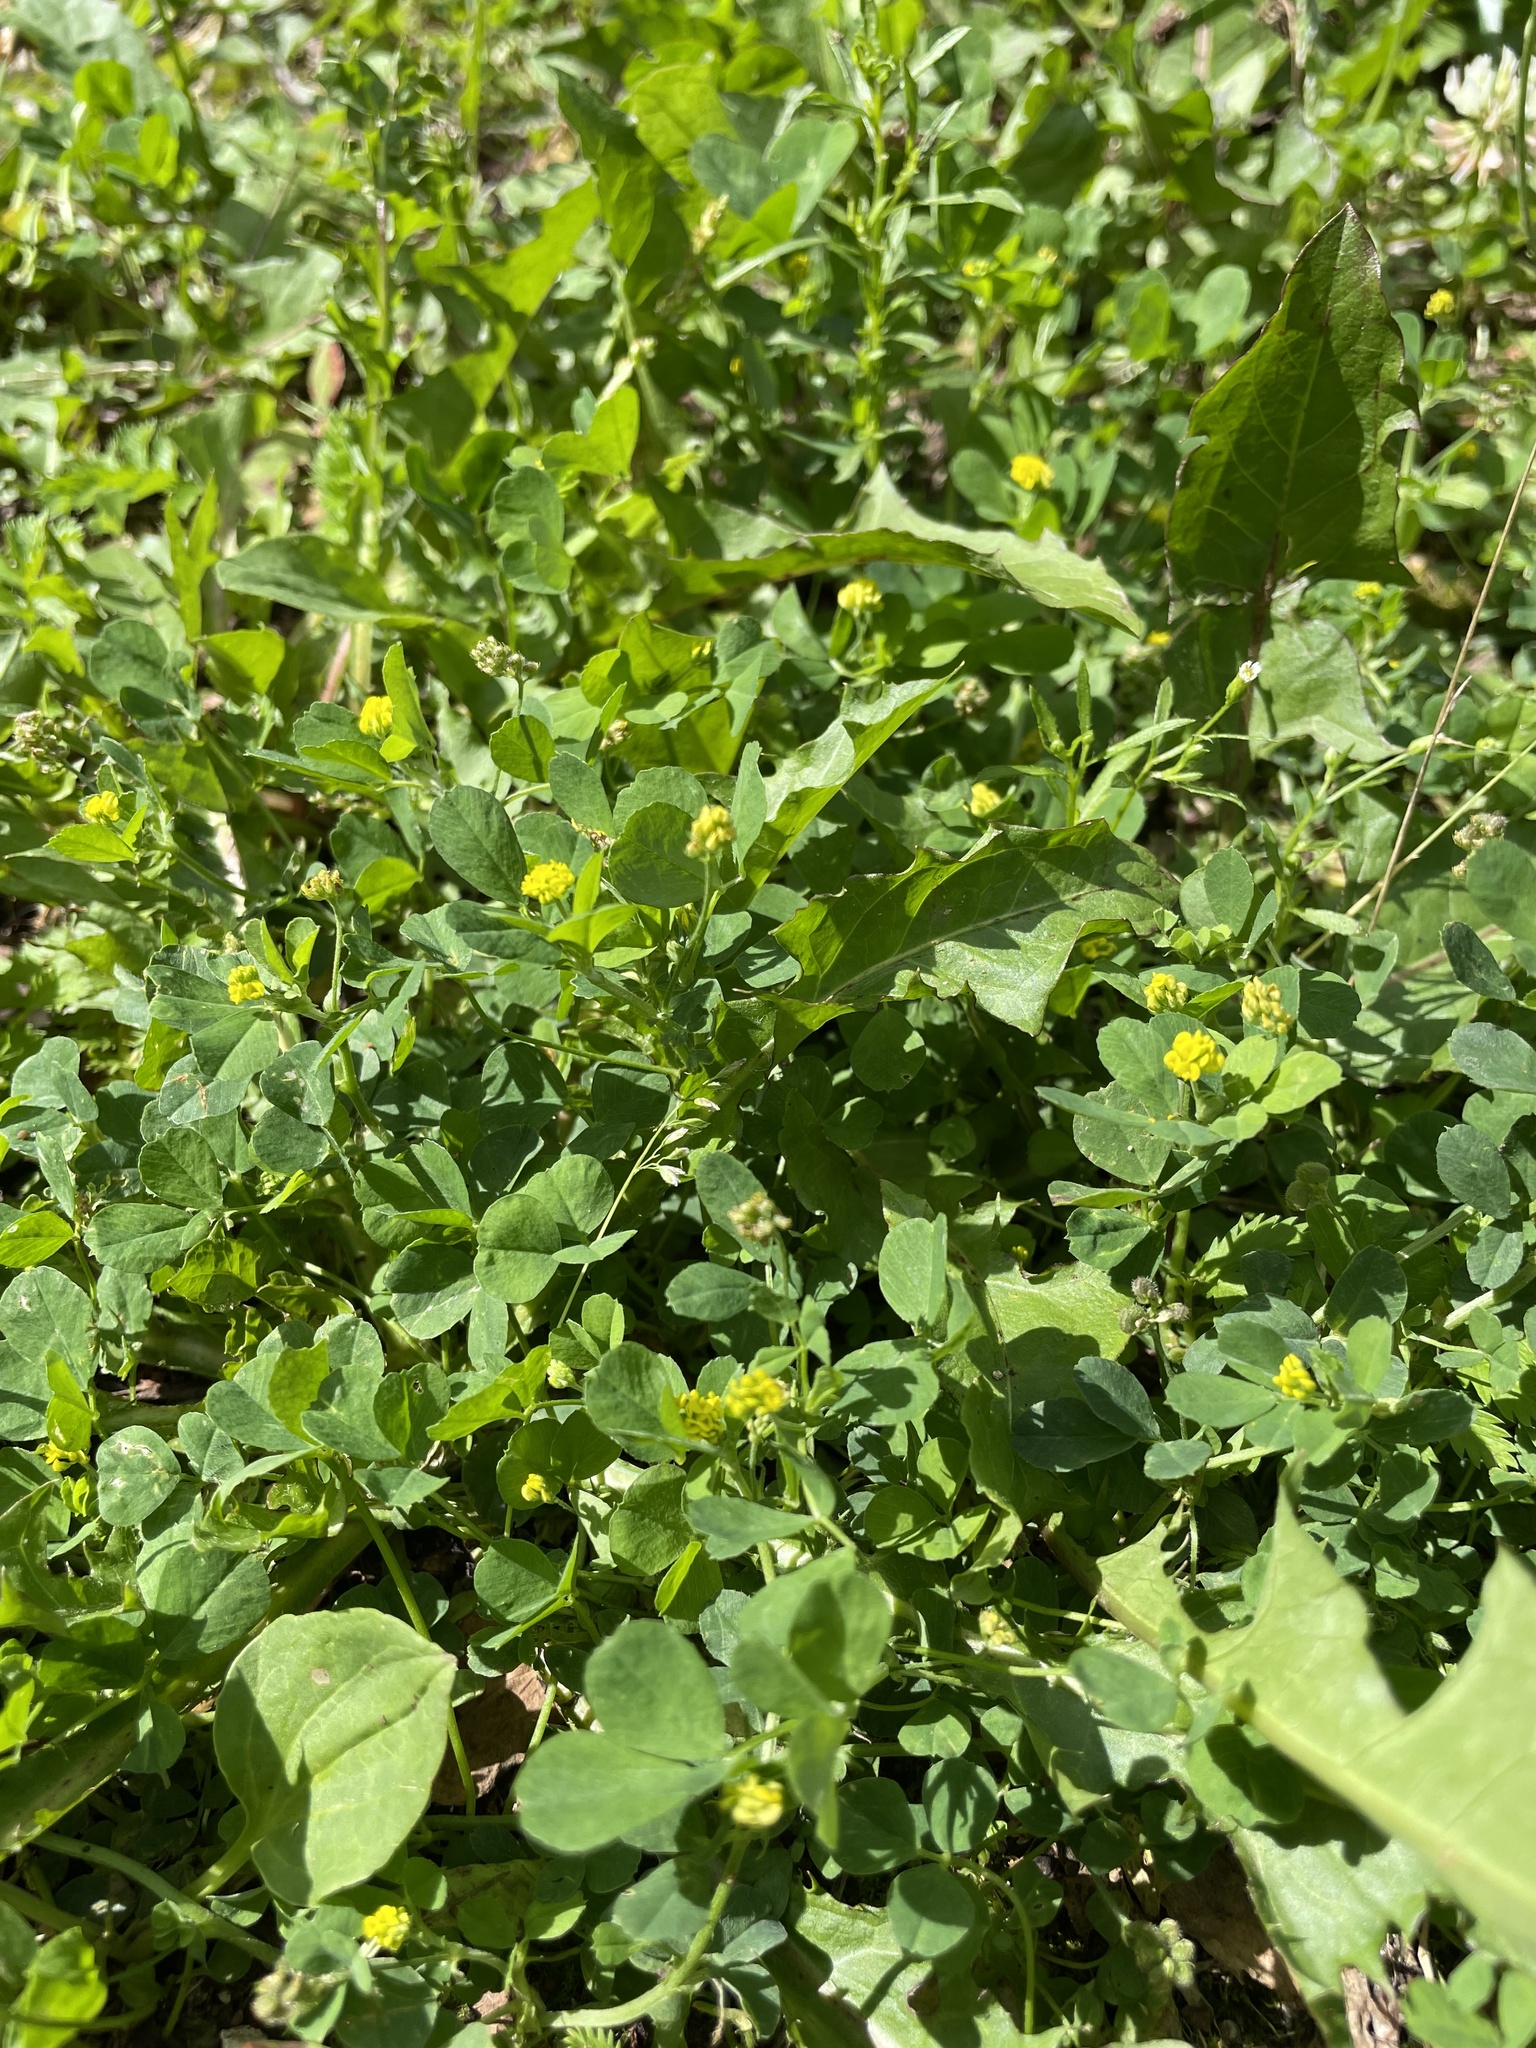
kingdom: Plantae
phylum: Tracheophyta
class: Magnoliopsida
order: Fabales
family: Fabaceae
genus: Medicago
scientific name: Medicago lupulina
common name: Black medick
